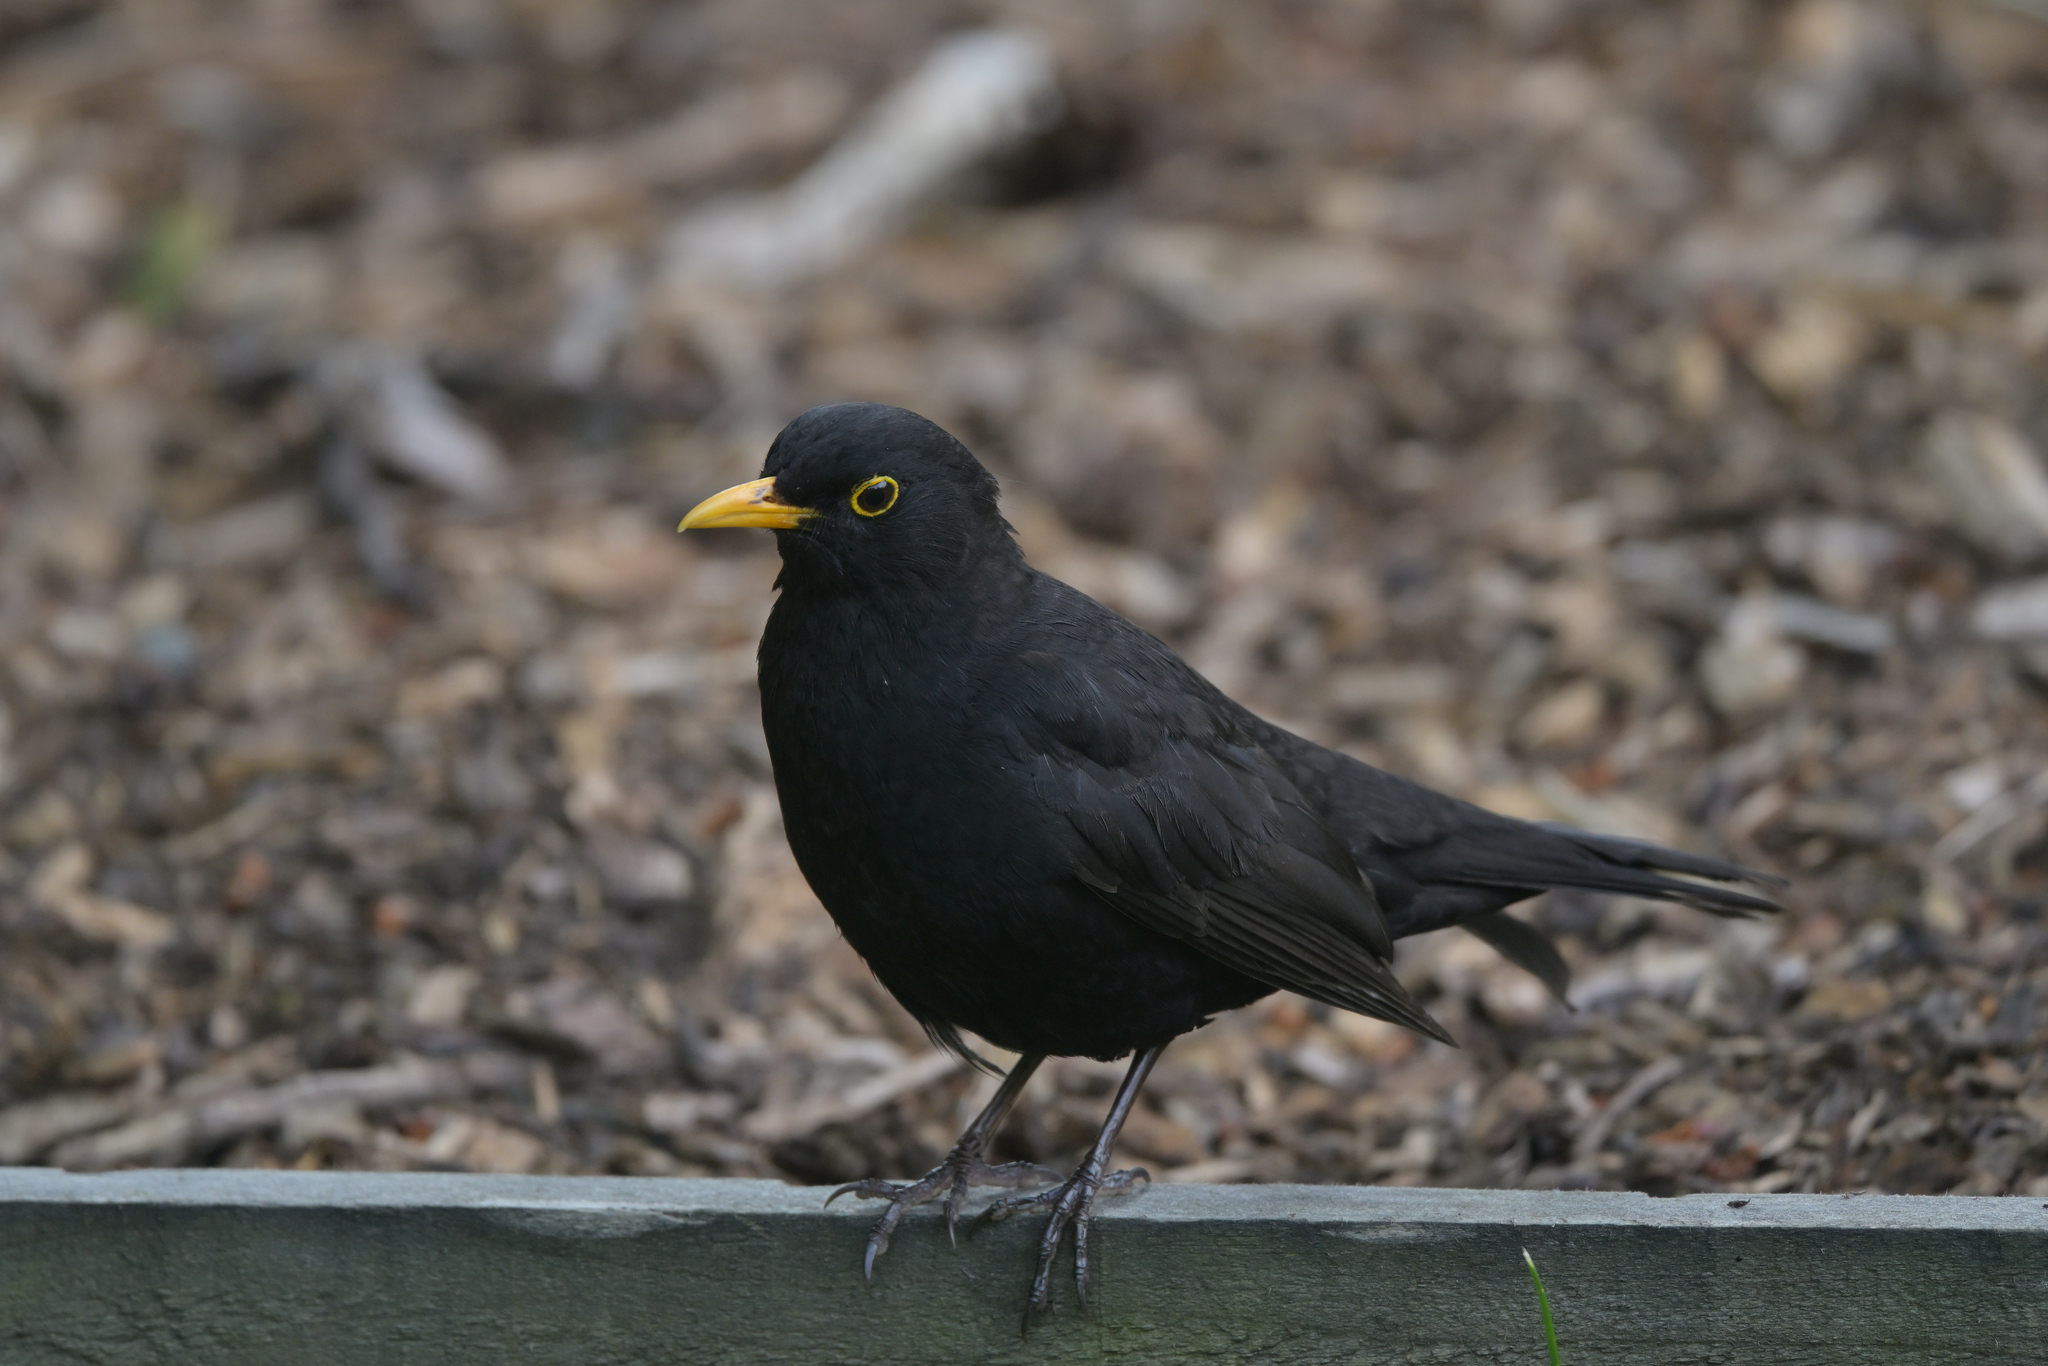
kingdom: Animalia
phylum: Chordata
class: Aves
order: Passeriformes
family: Turdidae
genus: Turdus
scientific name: Turdus merula
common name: Common blackbird
